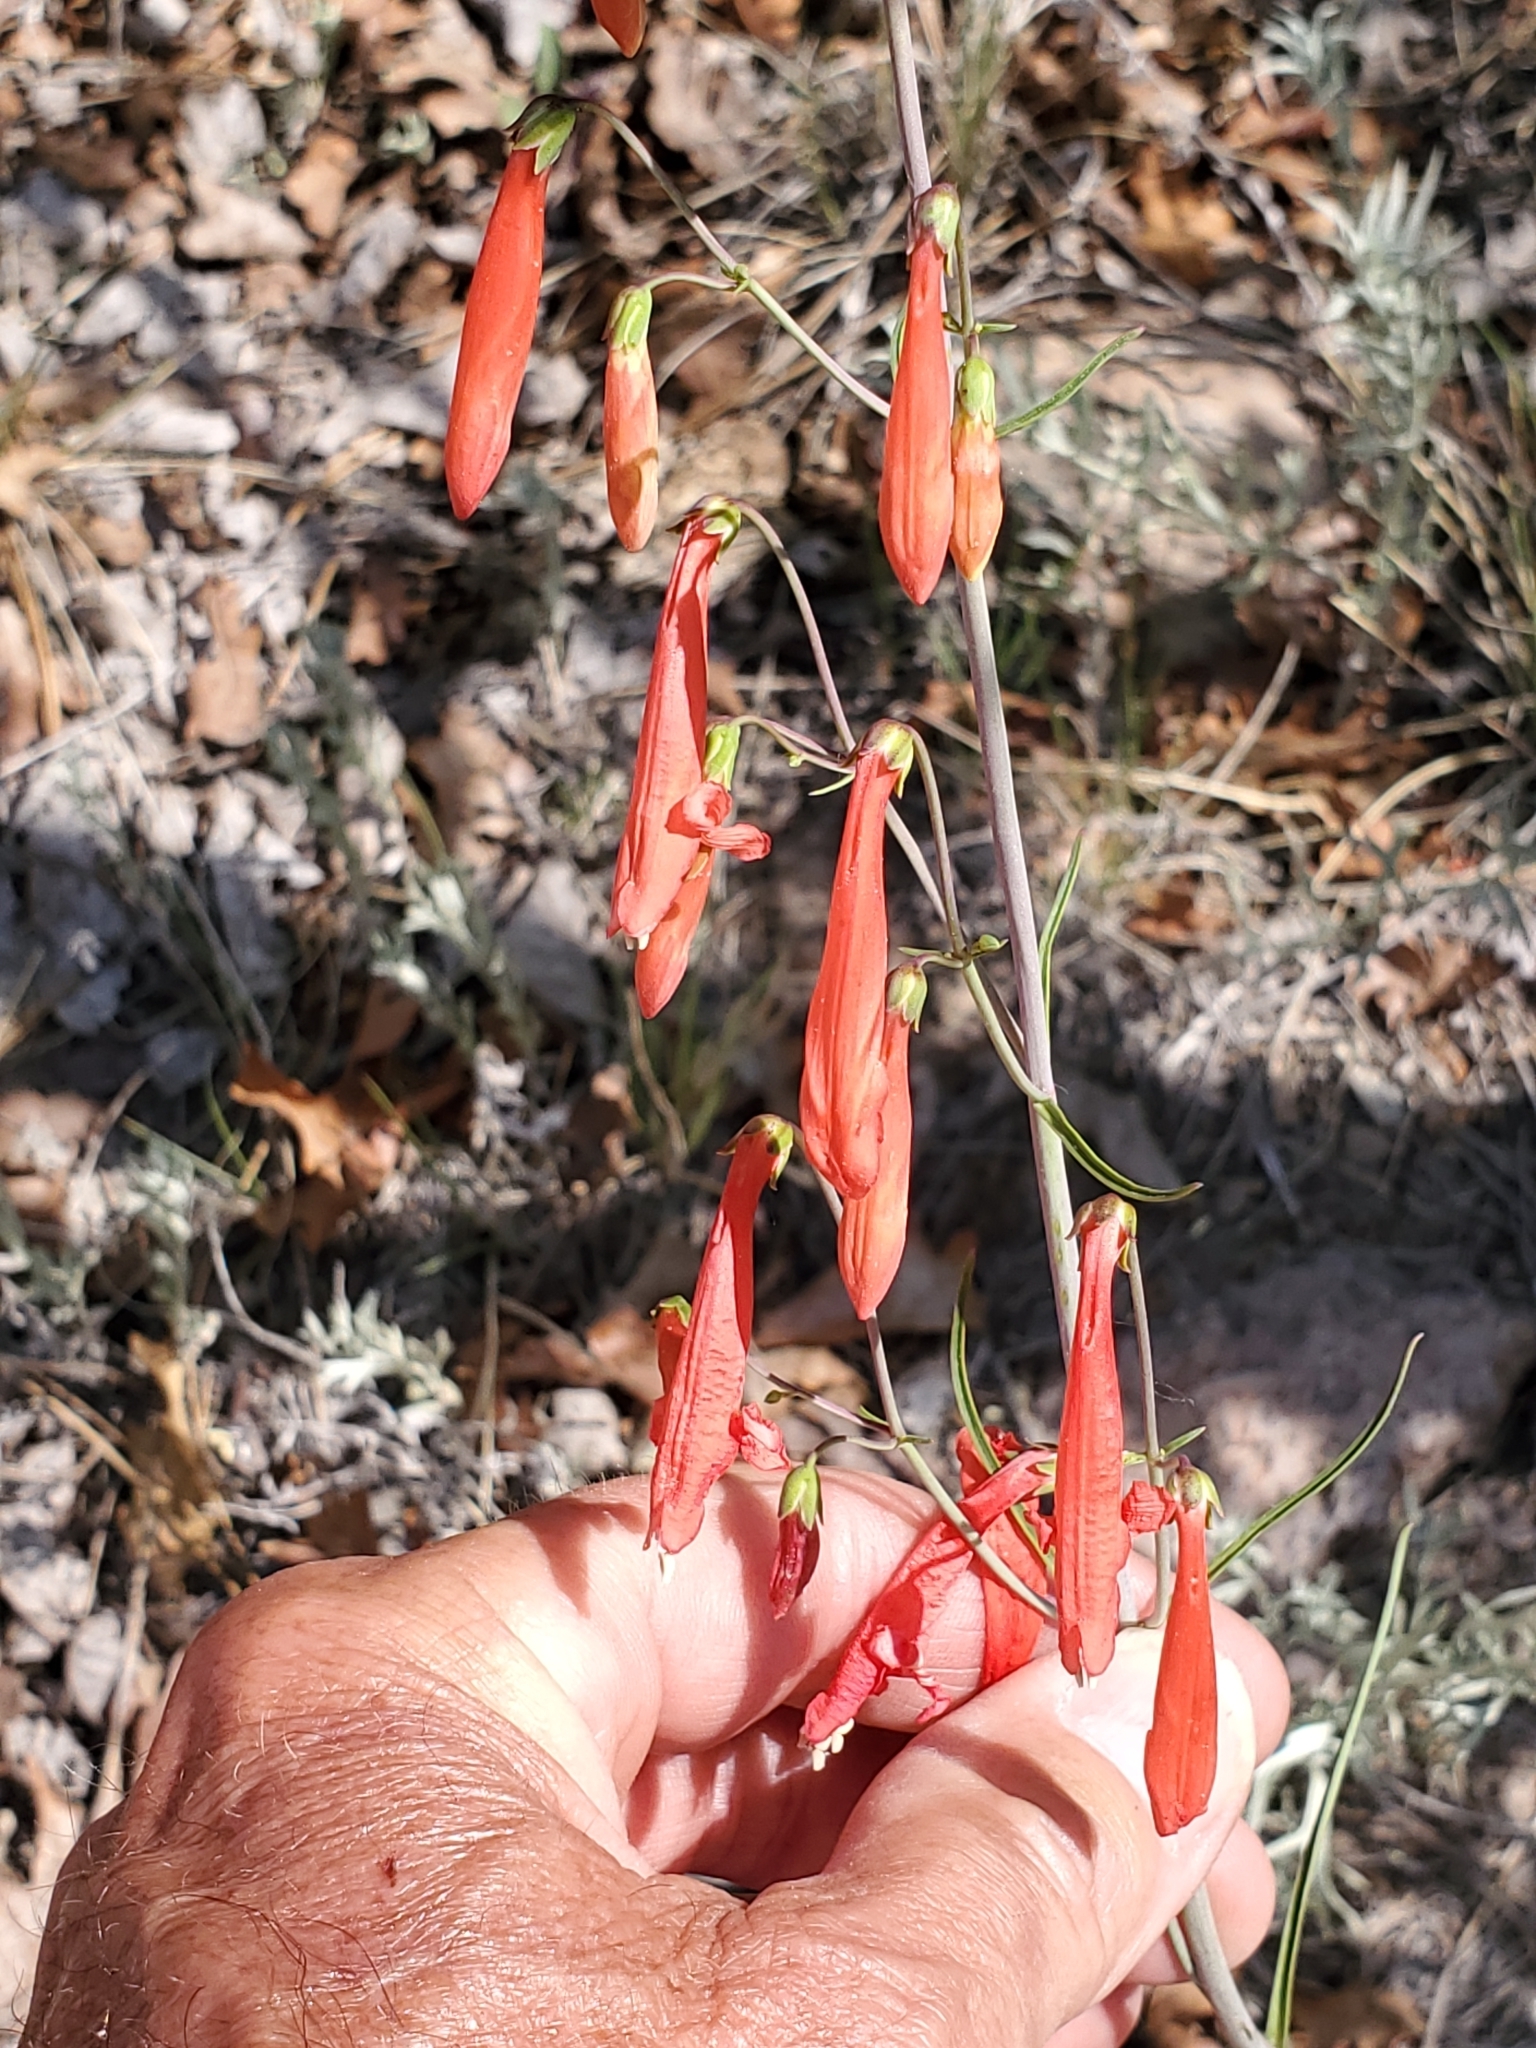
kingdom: Plantae
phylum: Tracheophyta
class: Magnoliopsida
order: Lamiales
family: Plantaginaceae
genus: Penstemon
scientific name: Penstemon barbatus
